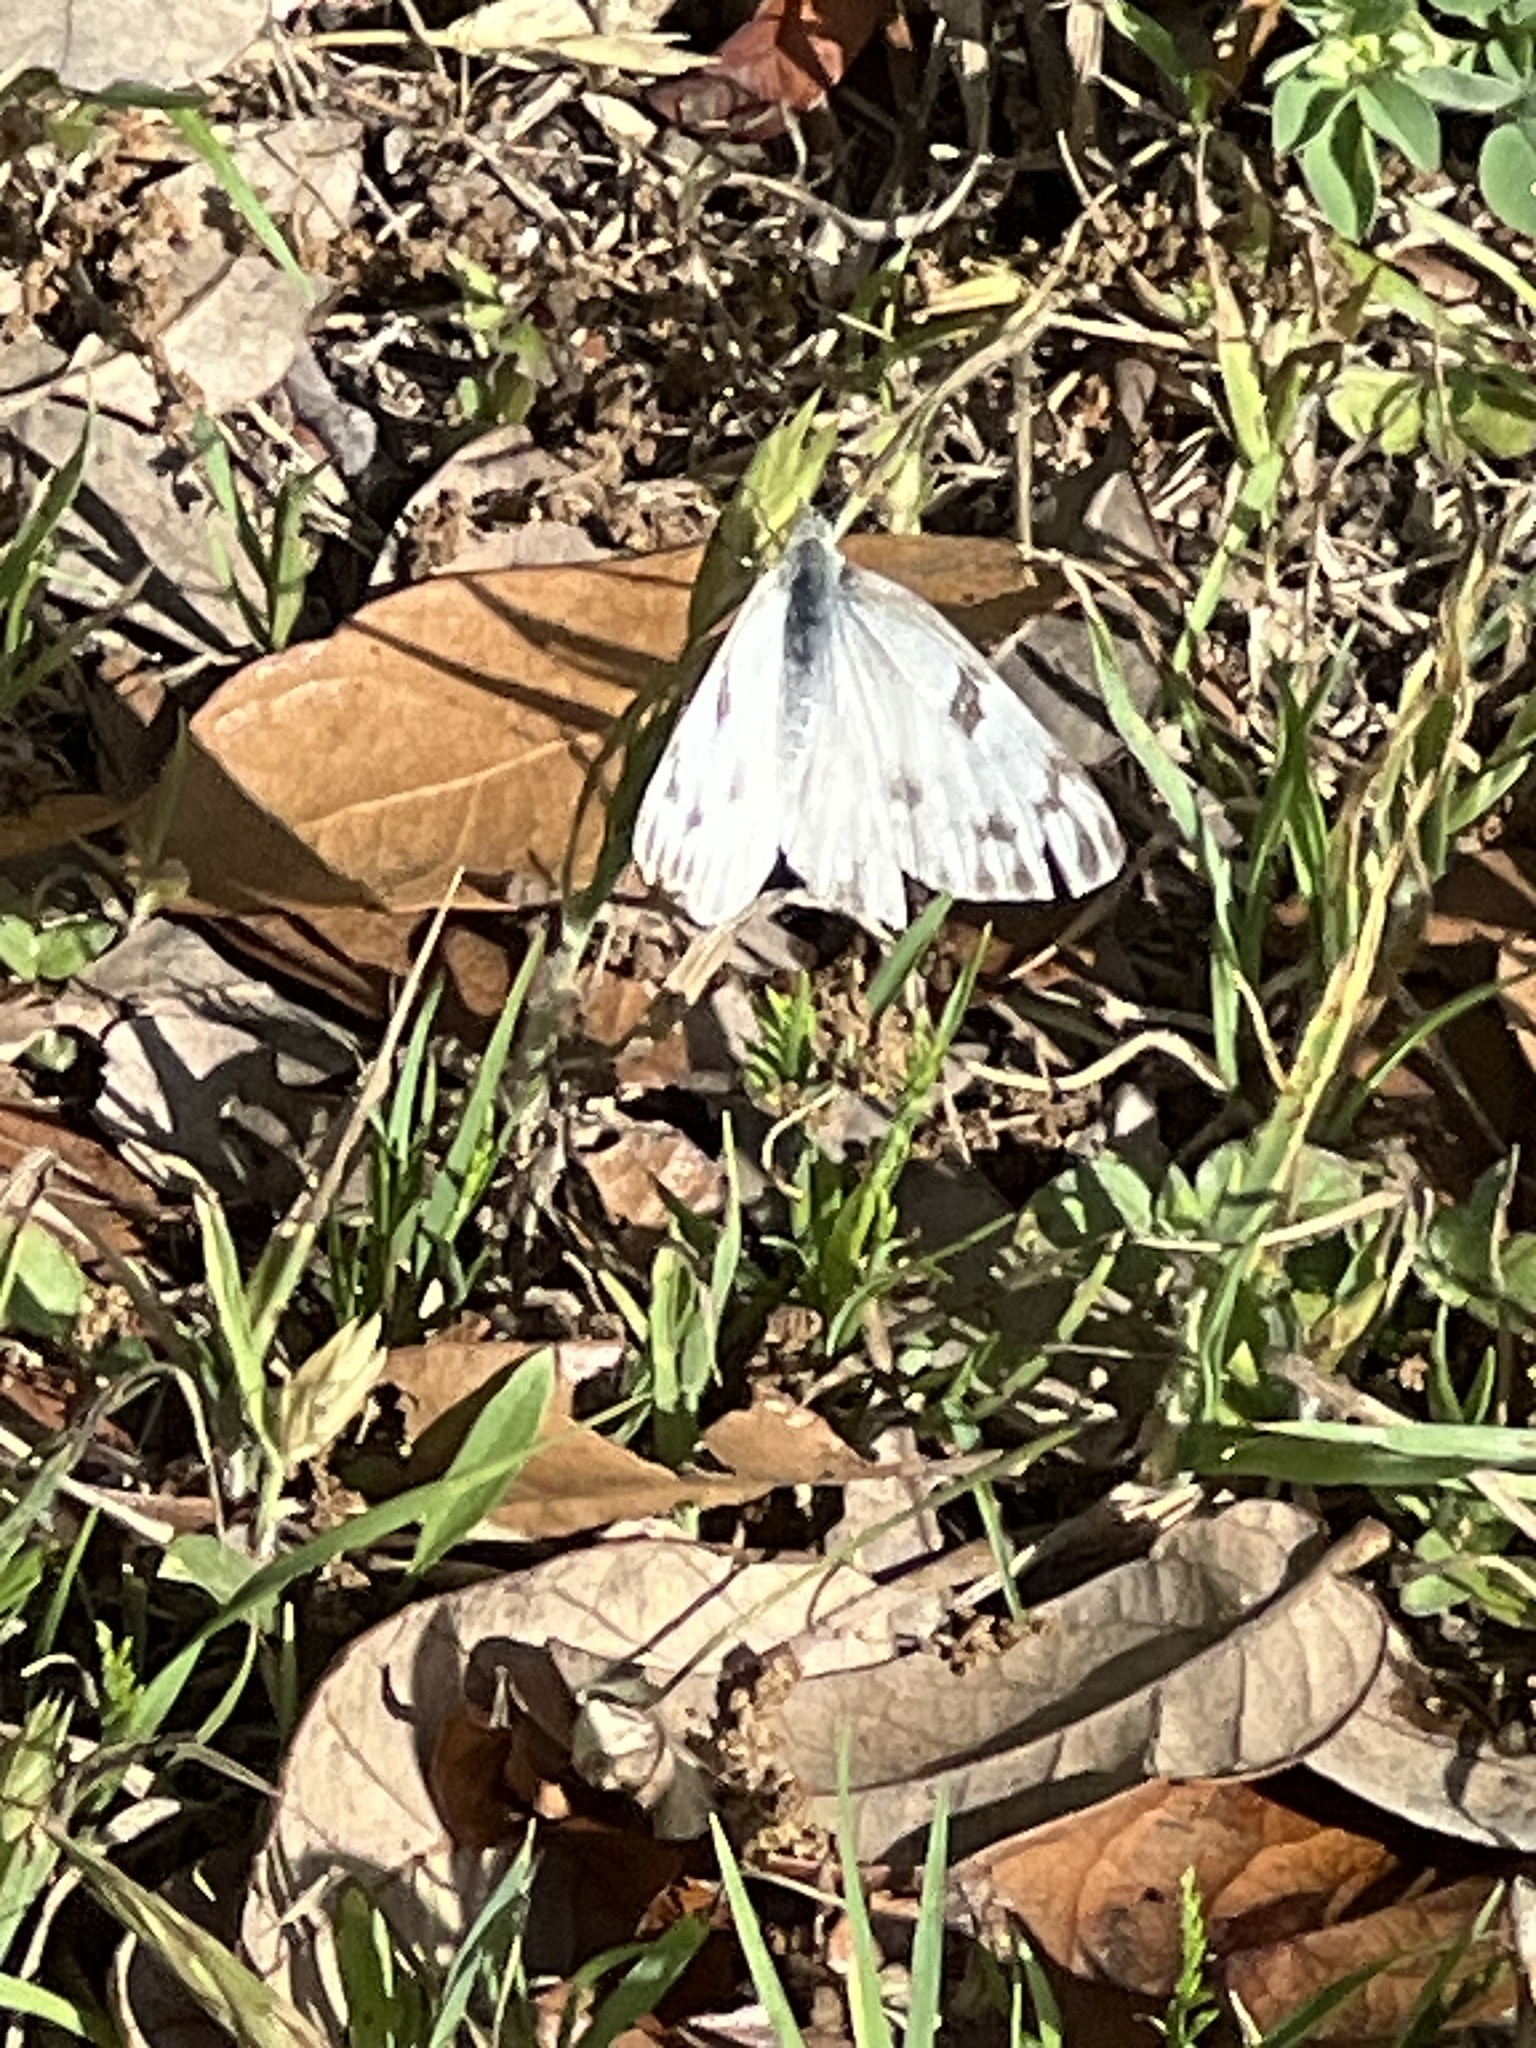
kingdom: Animalia
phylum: Arthropoda
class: Insecta
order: Lepidoptera
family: Pieridae
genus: Pontia
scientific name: Pontia protodice
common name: Checkered white
